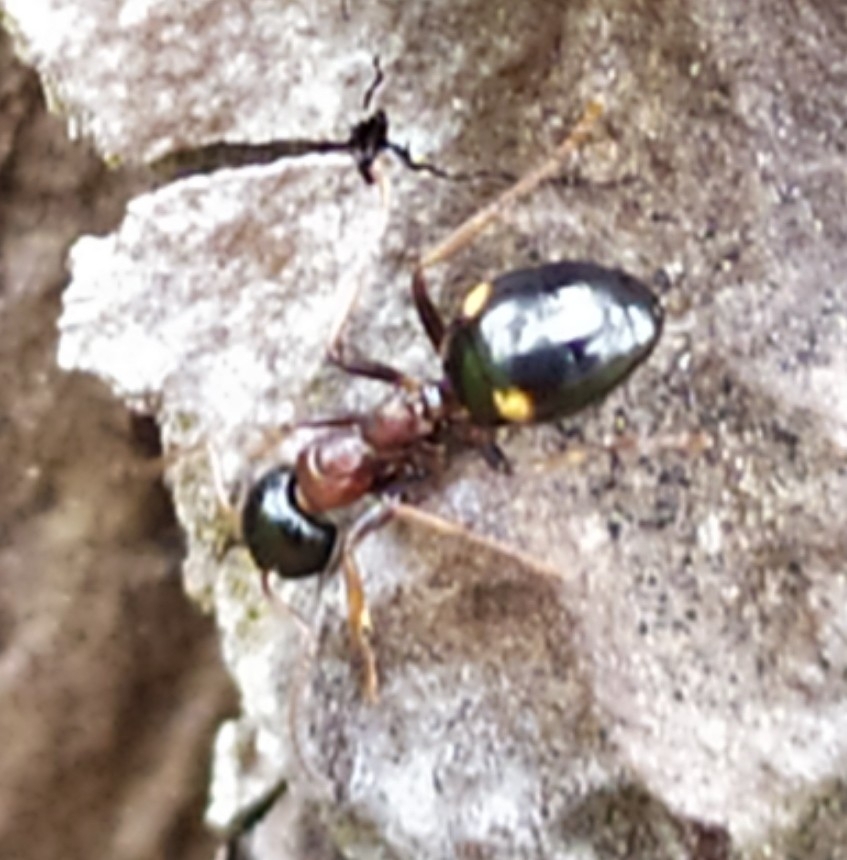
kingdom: Animalia
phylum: Arthropoda
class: Insecta
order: Hymenoptera
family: Formicidae
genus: Dolichoderus
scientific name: Dolichoderus quadripunctatus
